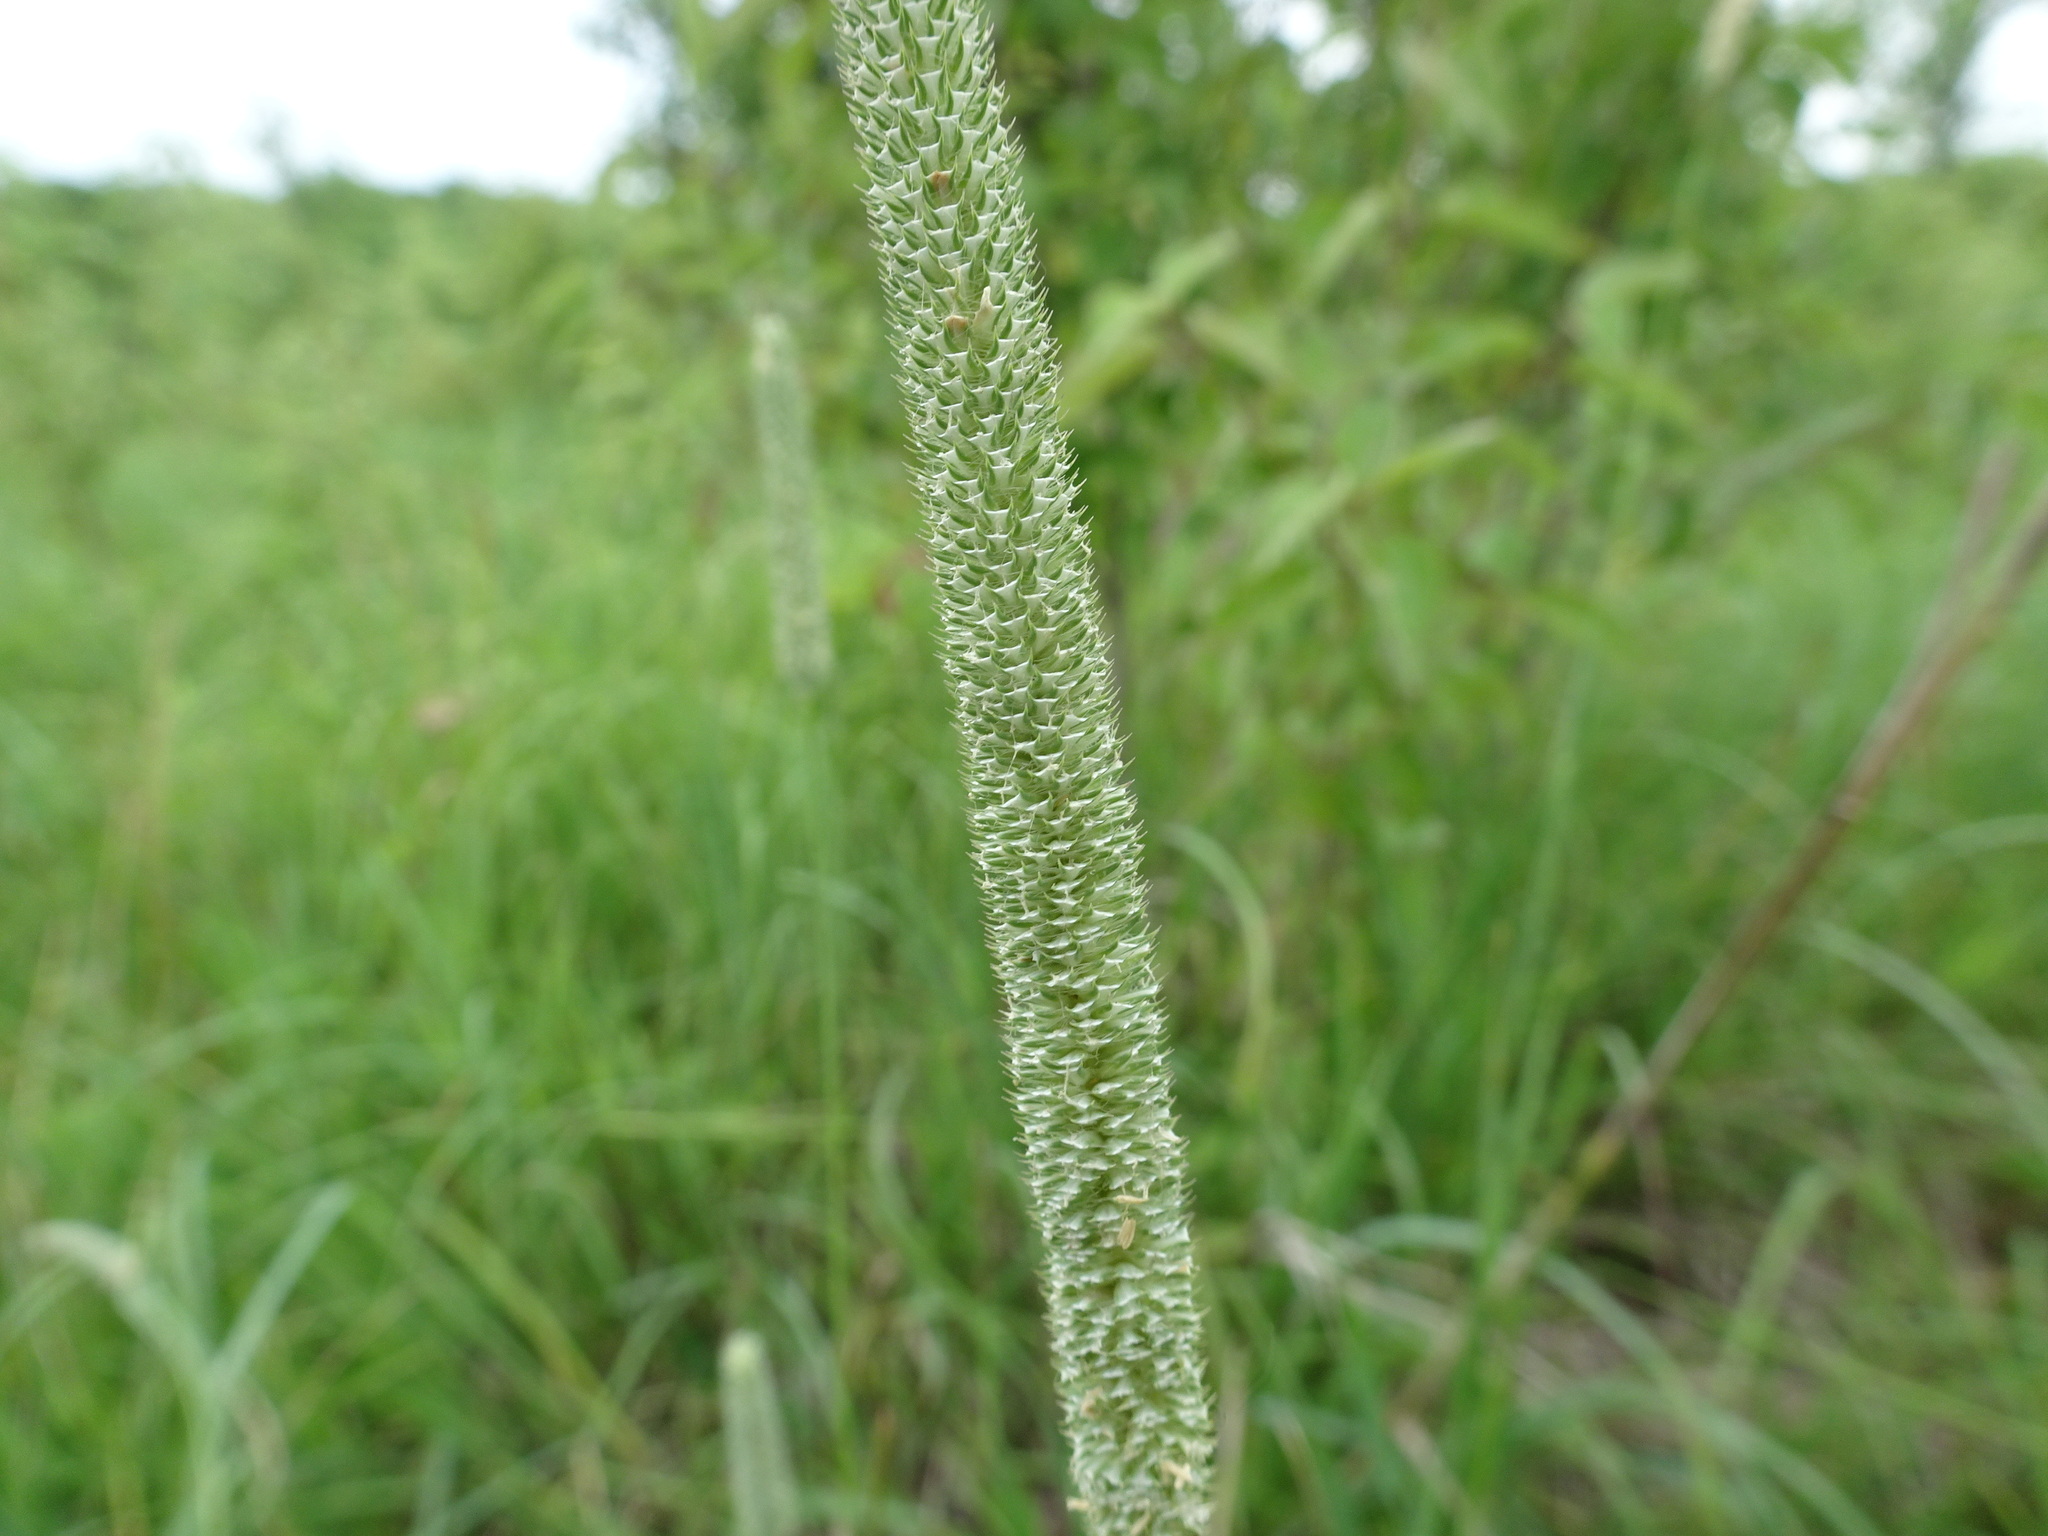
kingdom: Plantae
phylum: Tracheophyta
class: Liliopsida
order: Poales
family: Poaceae
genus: Phleum
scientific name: Phleum pratense
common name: Timothy grass
